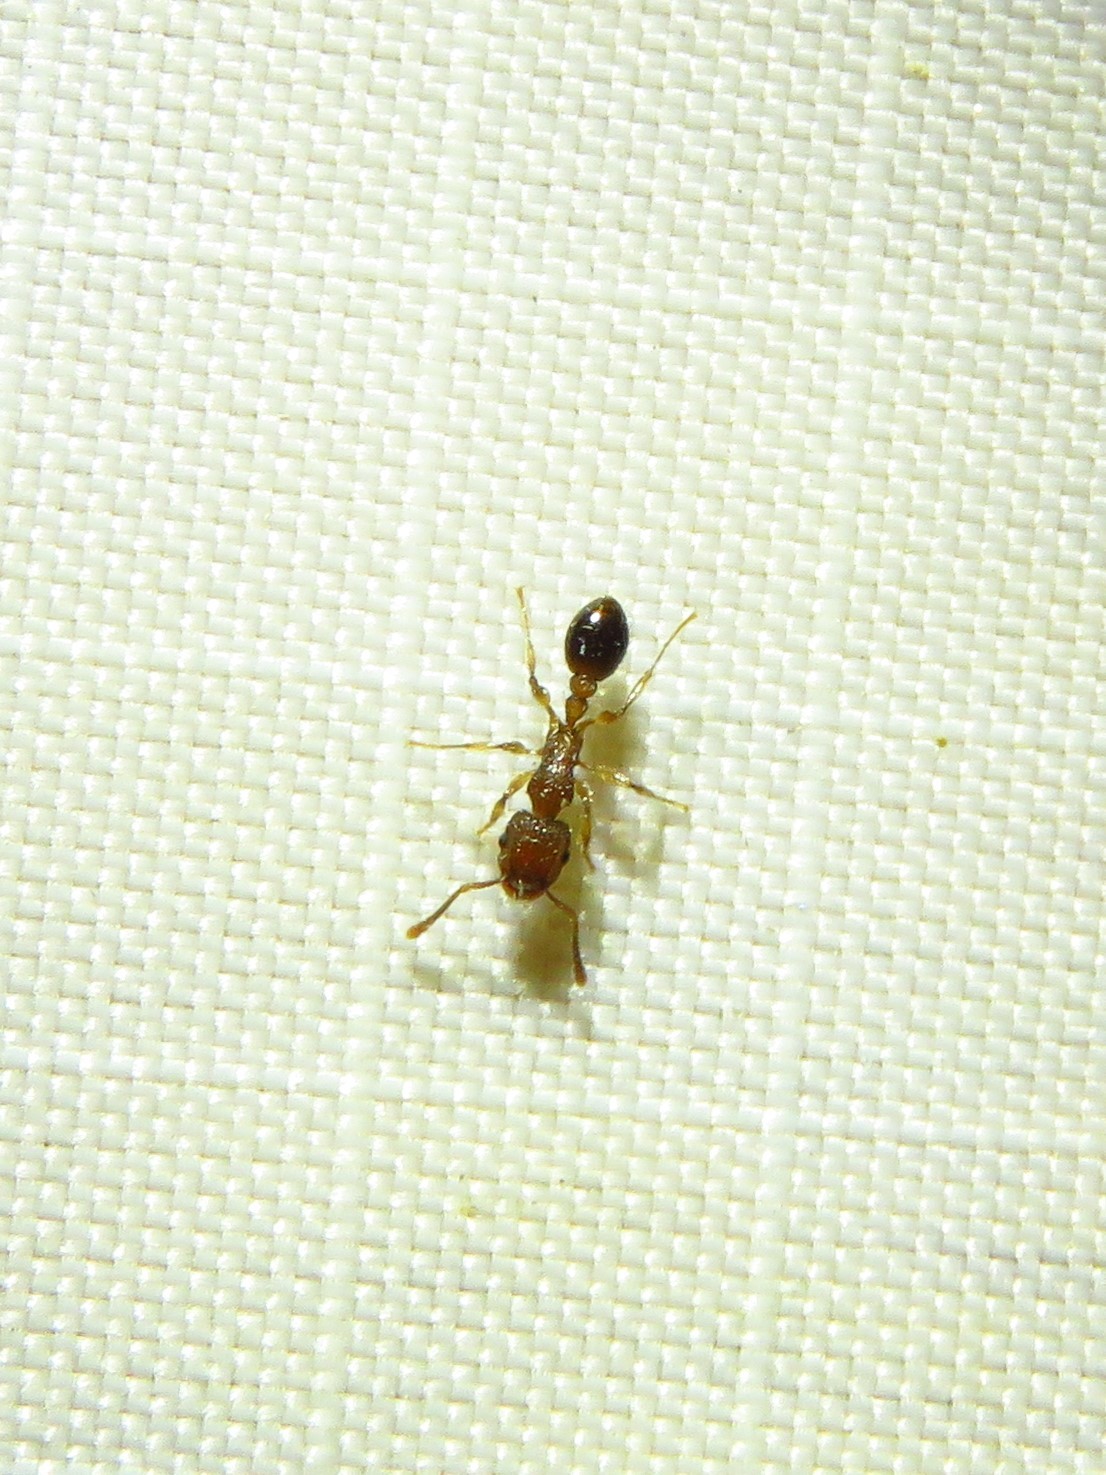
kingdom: Animalia
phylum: Arthropoda
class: Insecta
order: Hymenoptera
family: Formicidae
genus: Tetramorium
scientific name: Tetramorium bicarinatum
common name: Guinea ant
